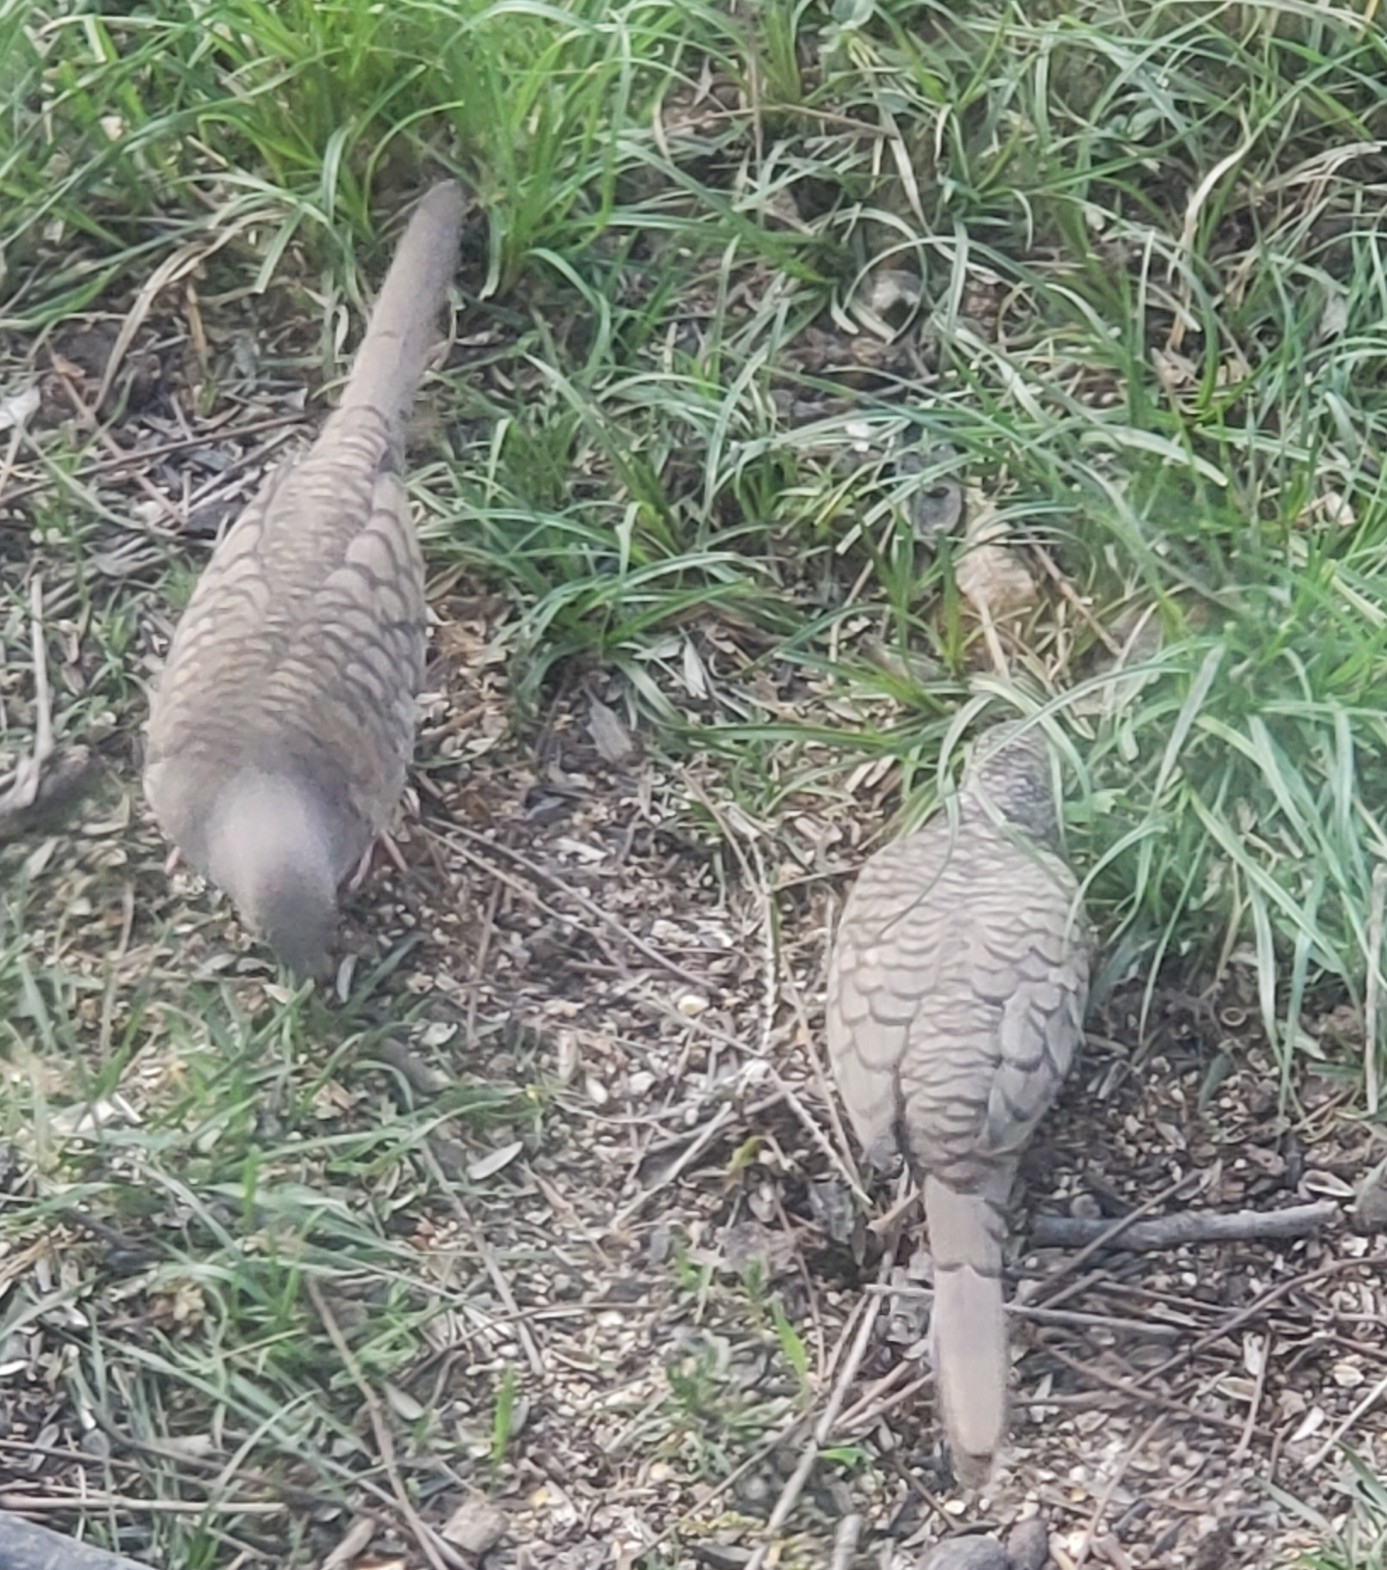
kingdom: Animalia
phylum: Chordata
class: Aves
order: Columbiformes
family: Columbidae
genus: Columbina
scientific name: Columbina inca
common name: Inca dove
